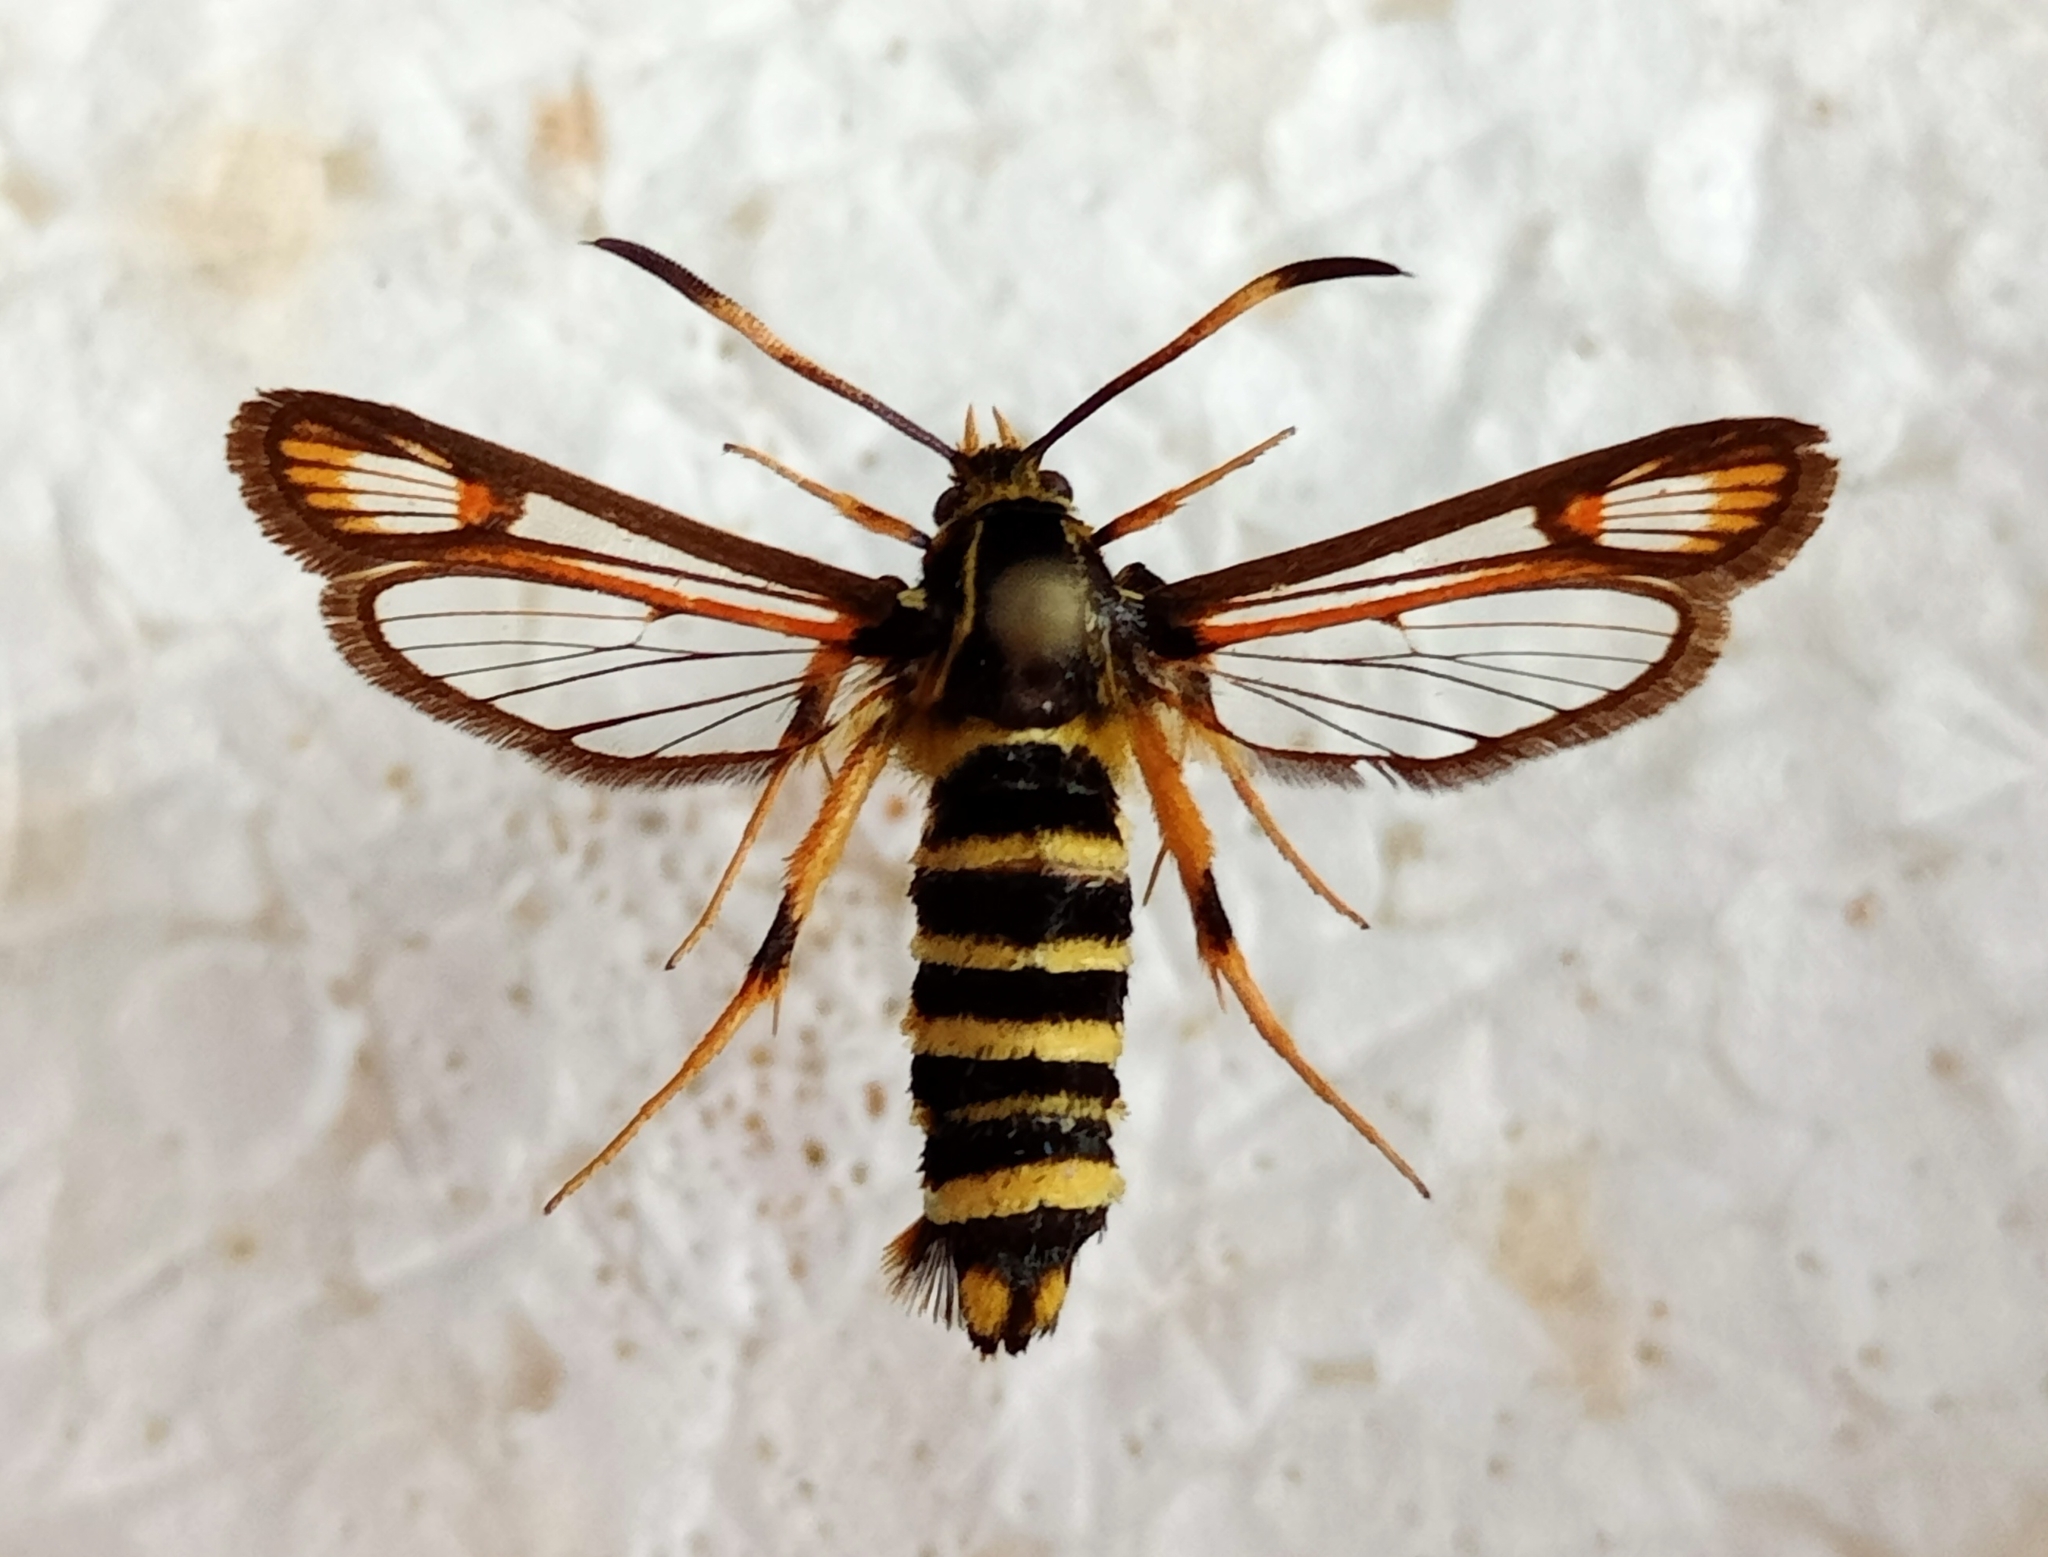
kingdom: Animalia
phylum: Arthropoda
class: Insecta
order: Lepidoptera
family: Sesiidae
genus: Bembecia
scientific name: Bembecia ichneumoniformis
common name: Six-belted clearwing
